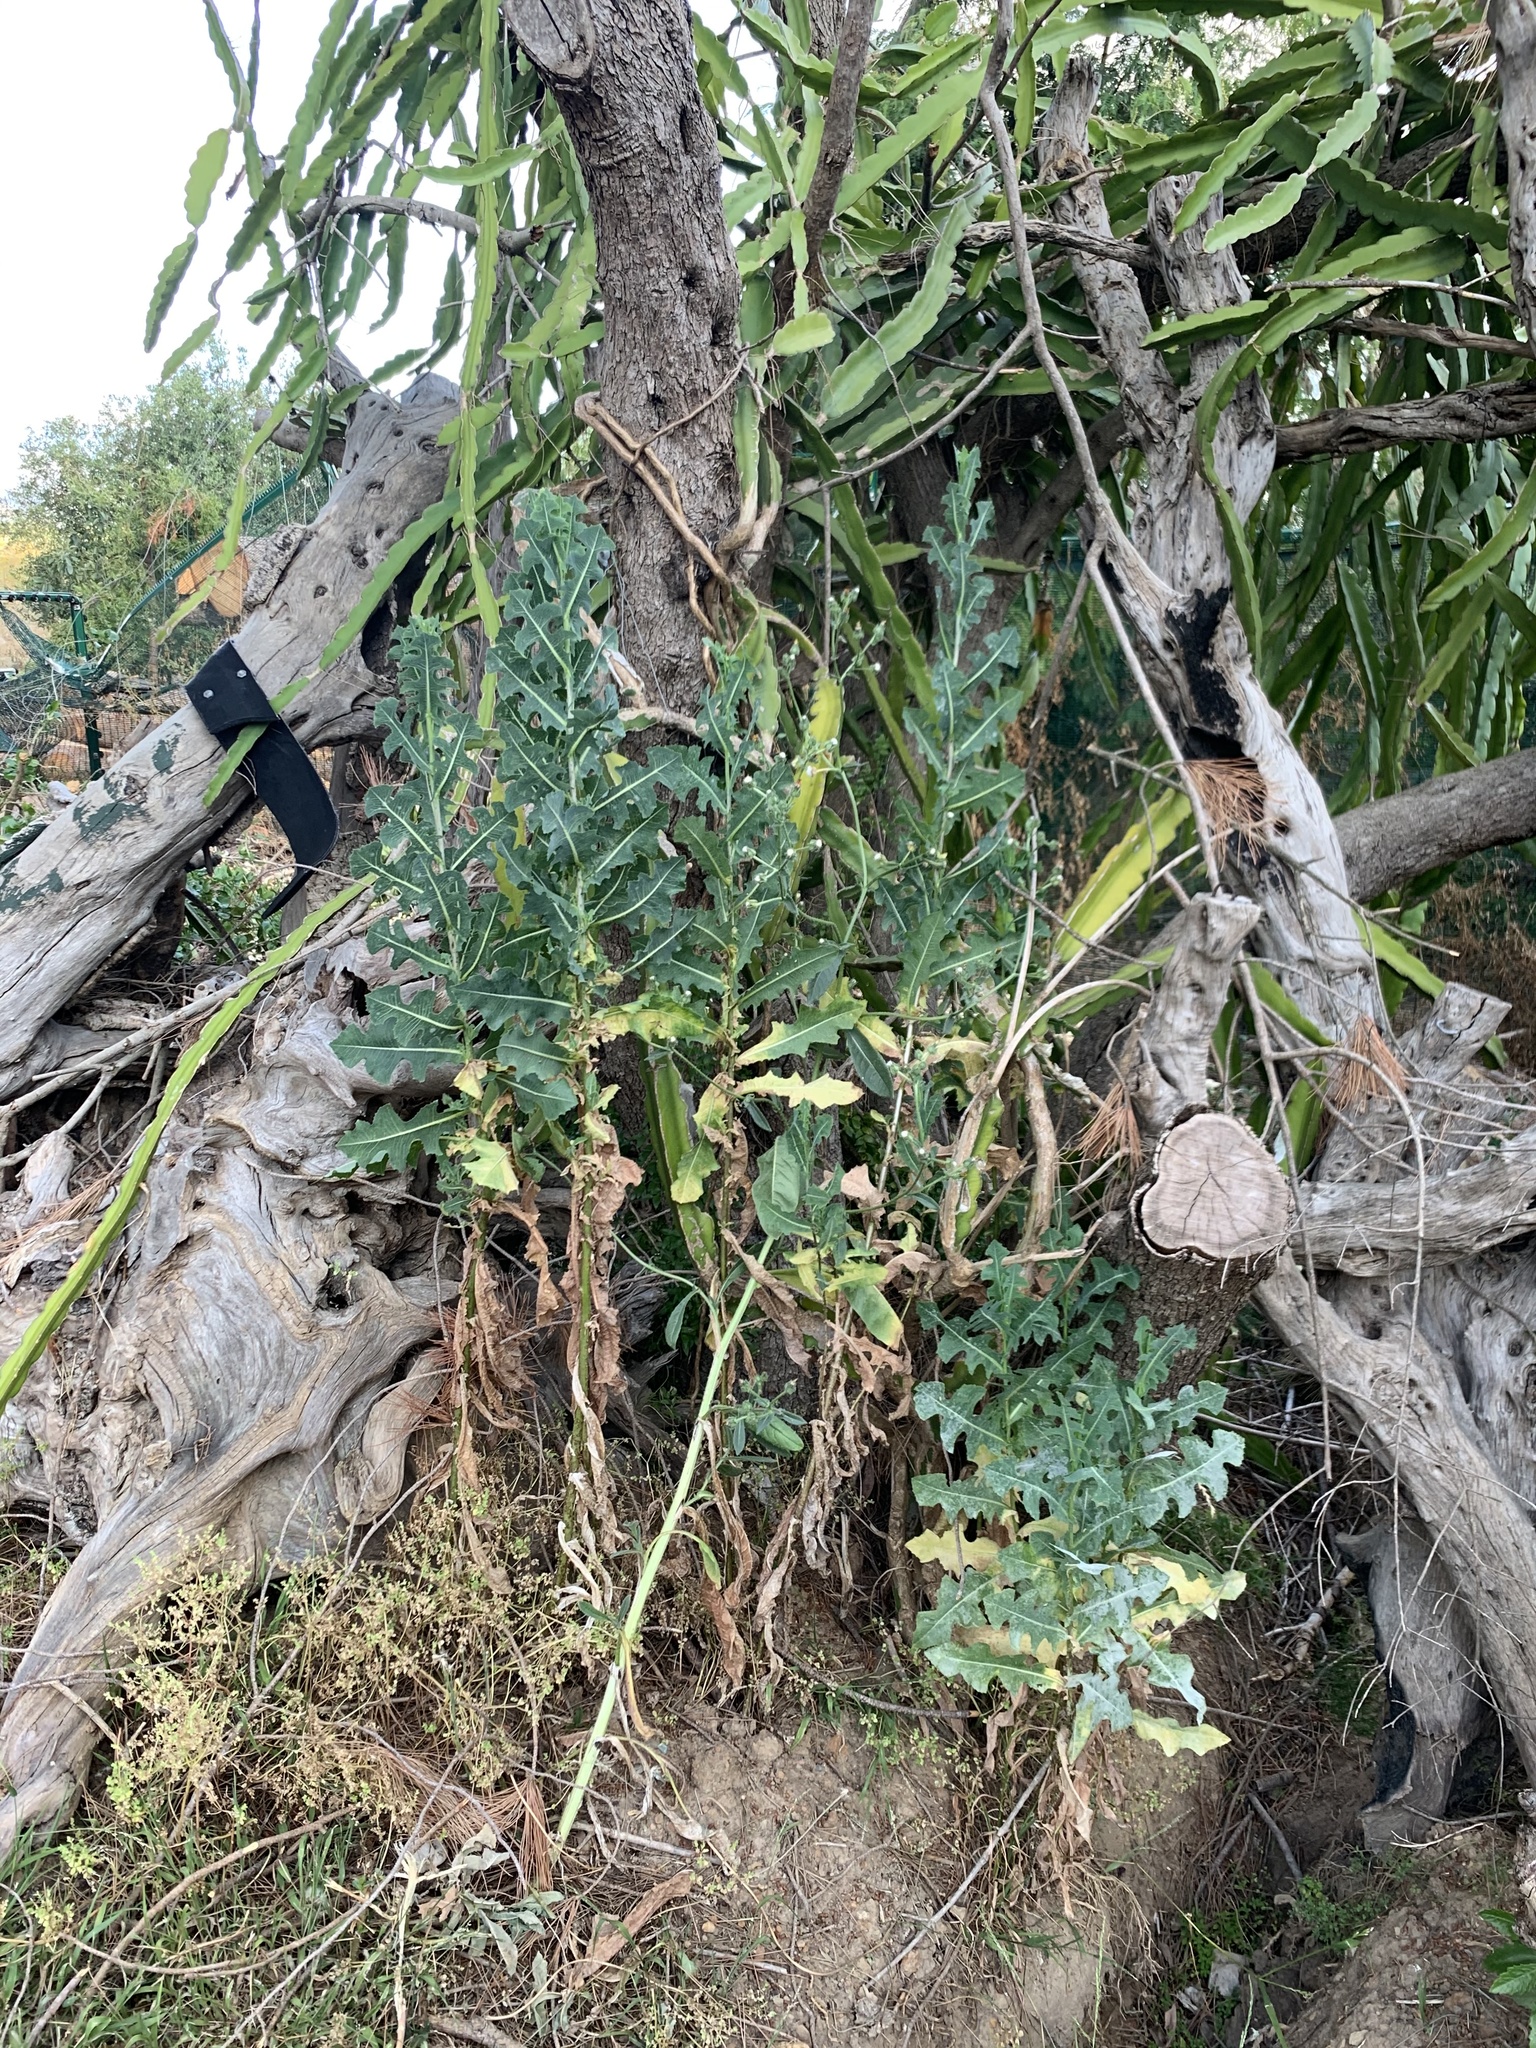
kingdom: Plantae
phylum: Tracheophyta
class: Magnoliopsida
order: Asterales
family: Asteraceae
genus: Lactuca
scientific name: Lactuca serriola
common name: Prickly lettuce
